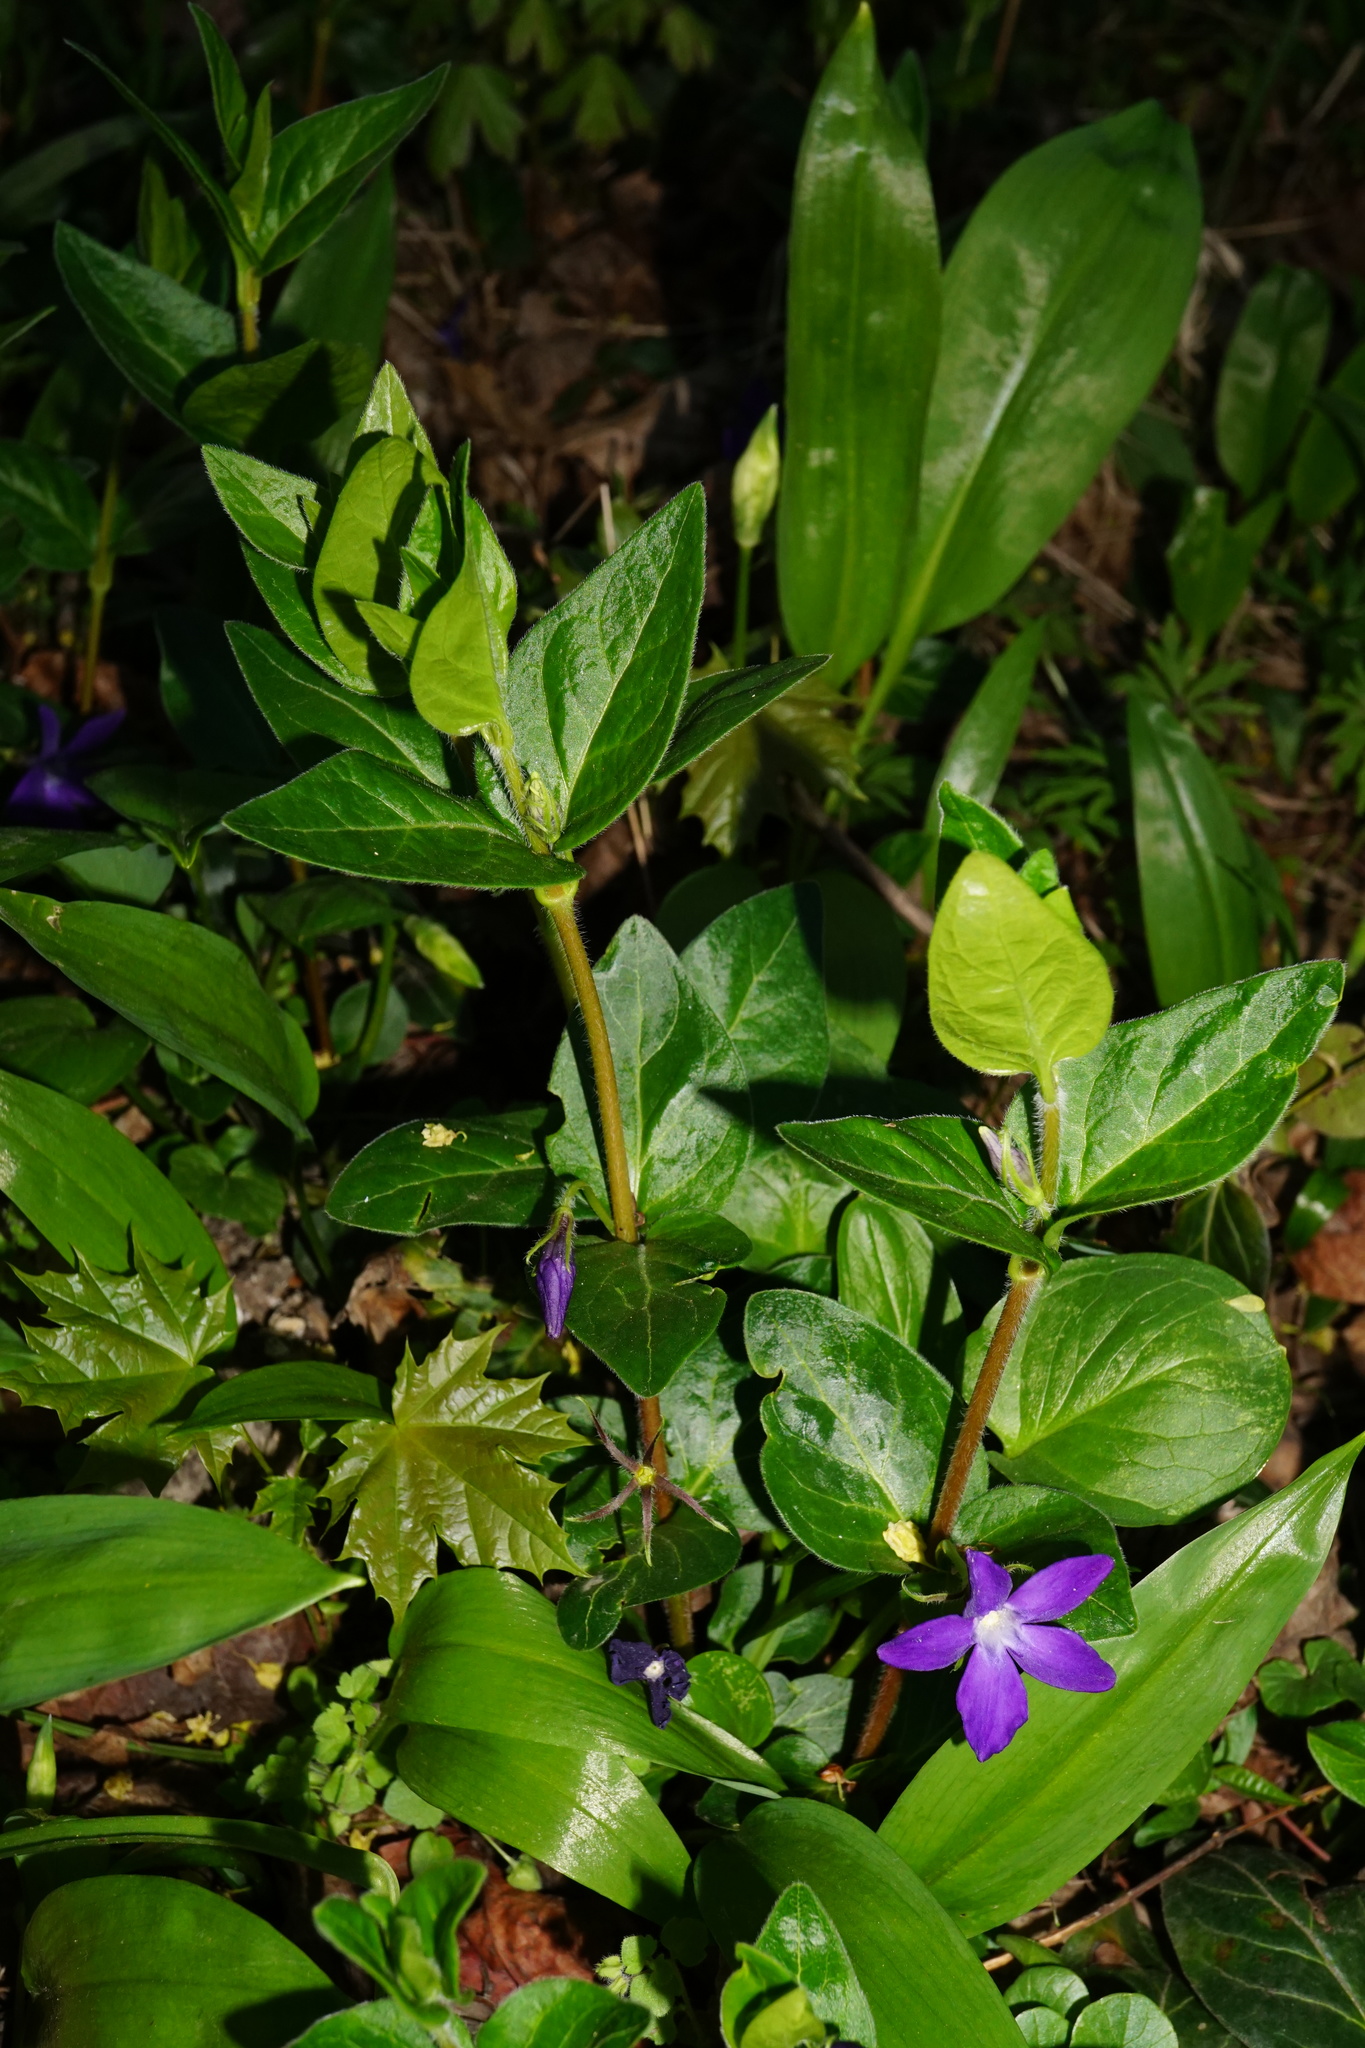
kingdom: Plantae
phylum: Tracheophyta
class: Magnoliopsida
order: Gentianales
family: Apocynaceae
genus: Vinca
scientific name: Vinca major
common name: Greater periwinkle
